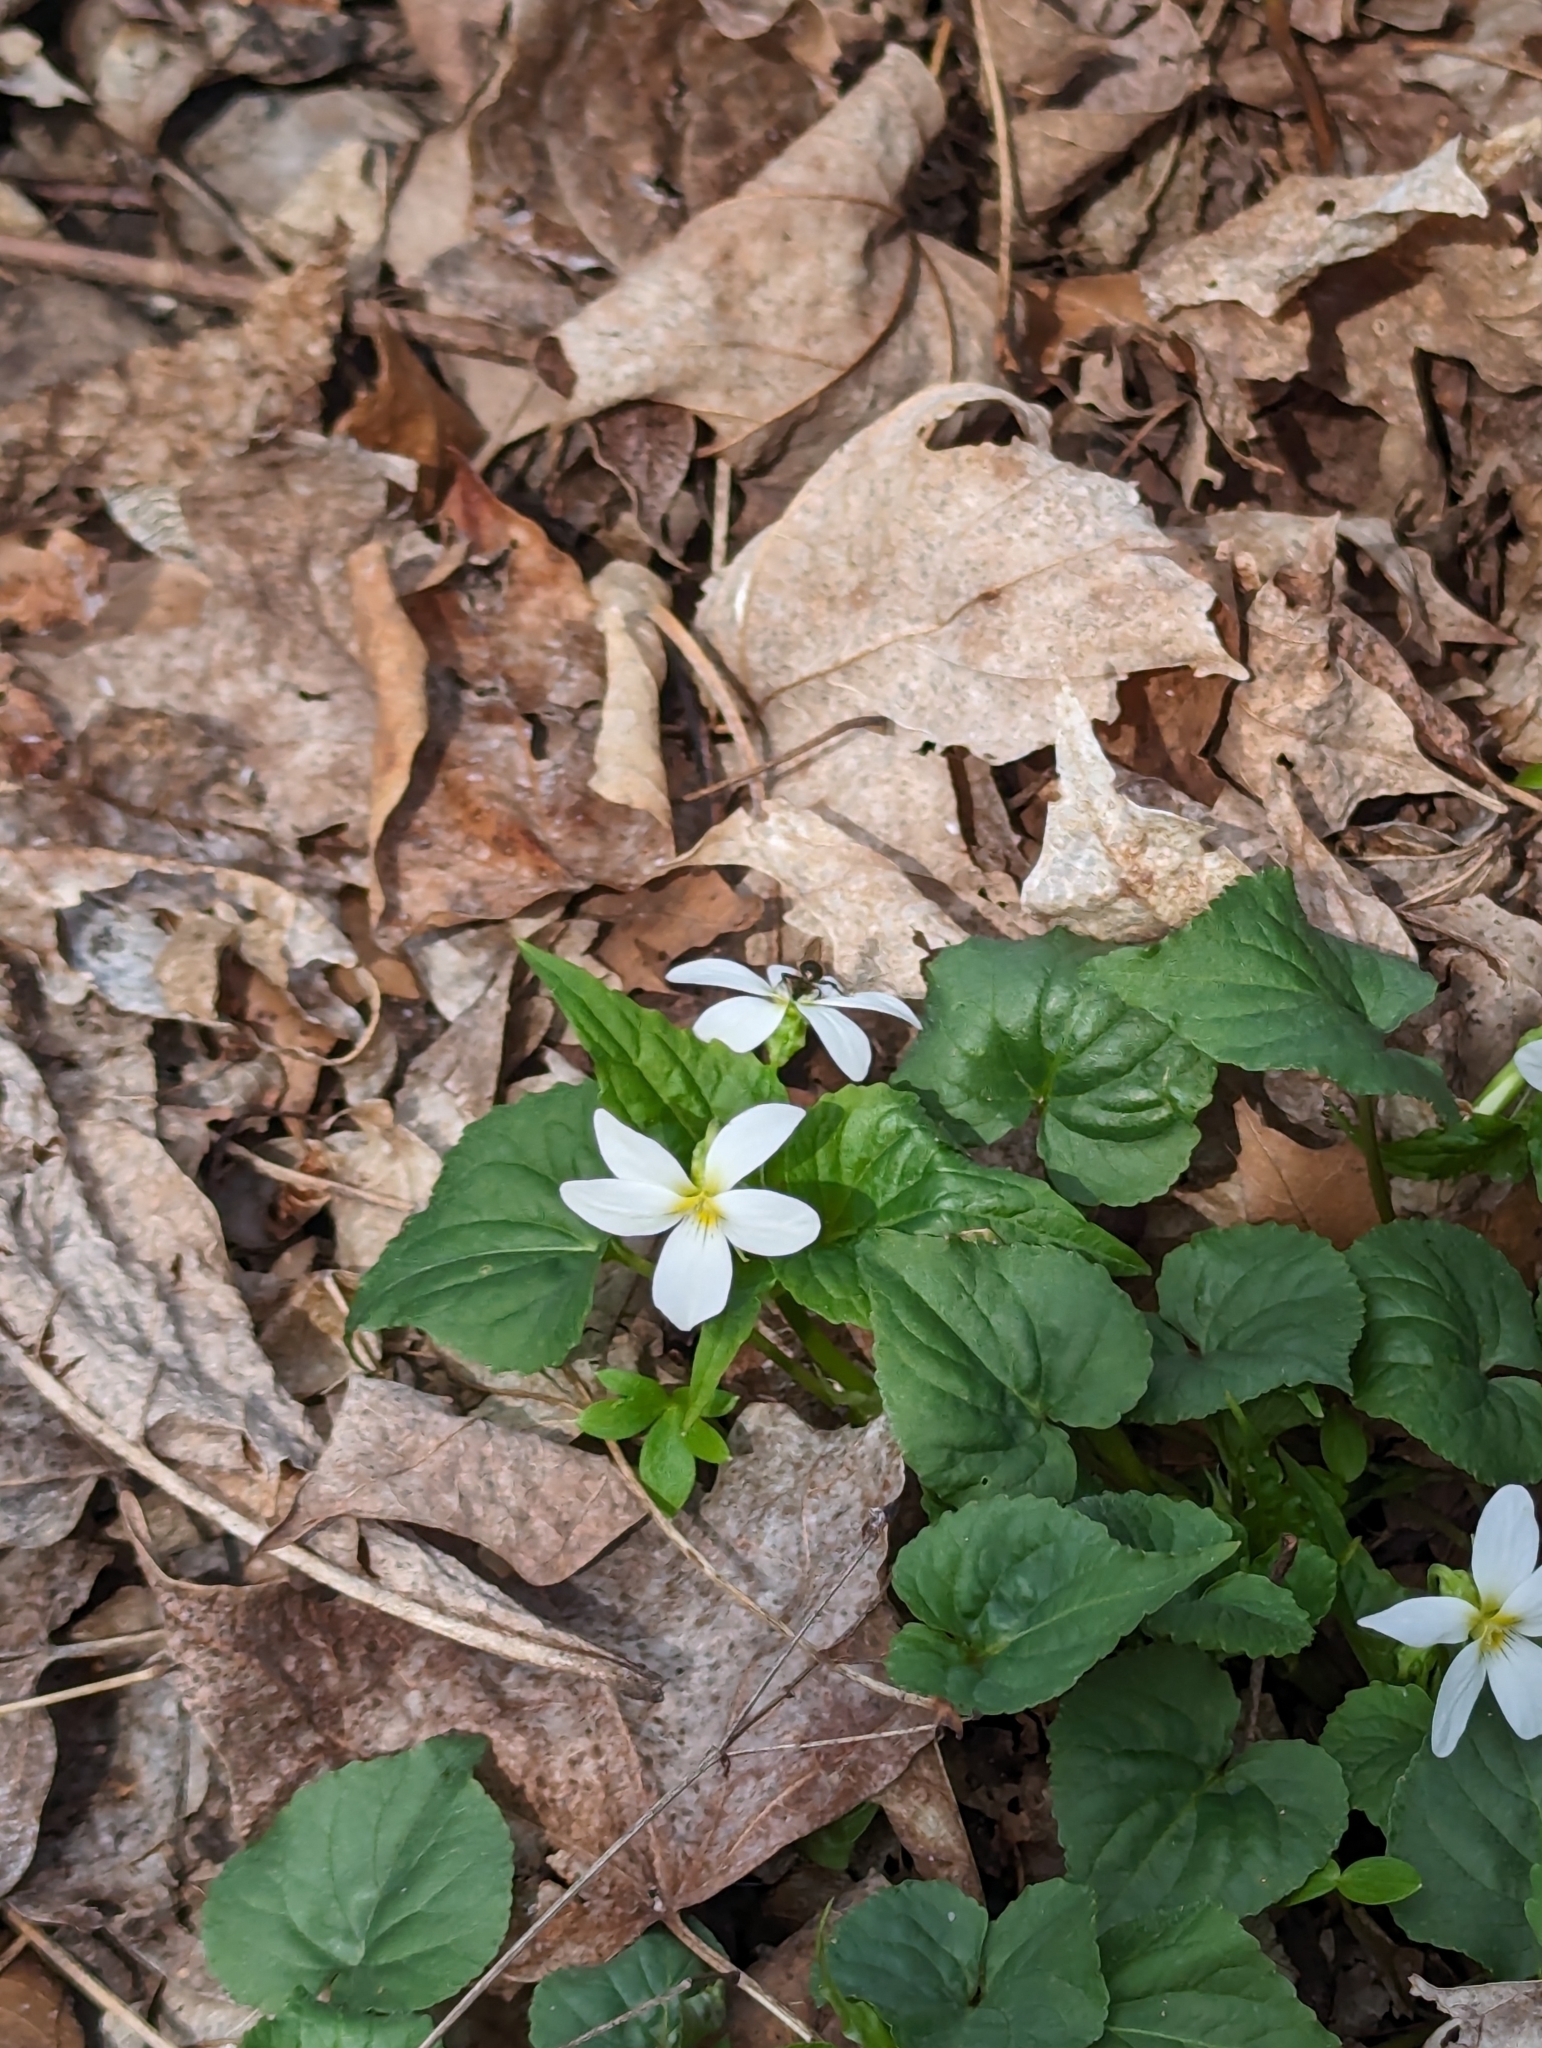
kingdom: Plantae
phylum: Tracheophyta
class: Magnoliopsida
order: Malpighiales
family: Violaceae
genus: Viola
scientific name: Viola canadensis
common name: Canada violet
